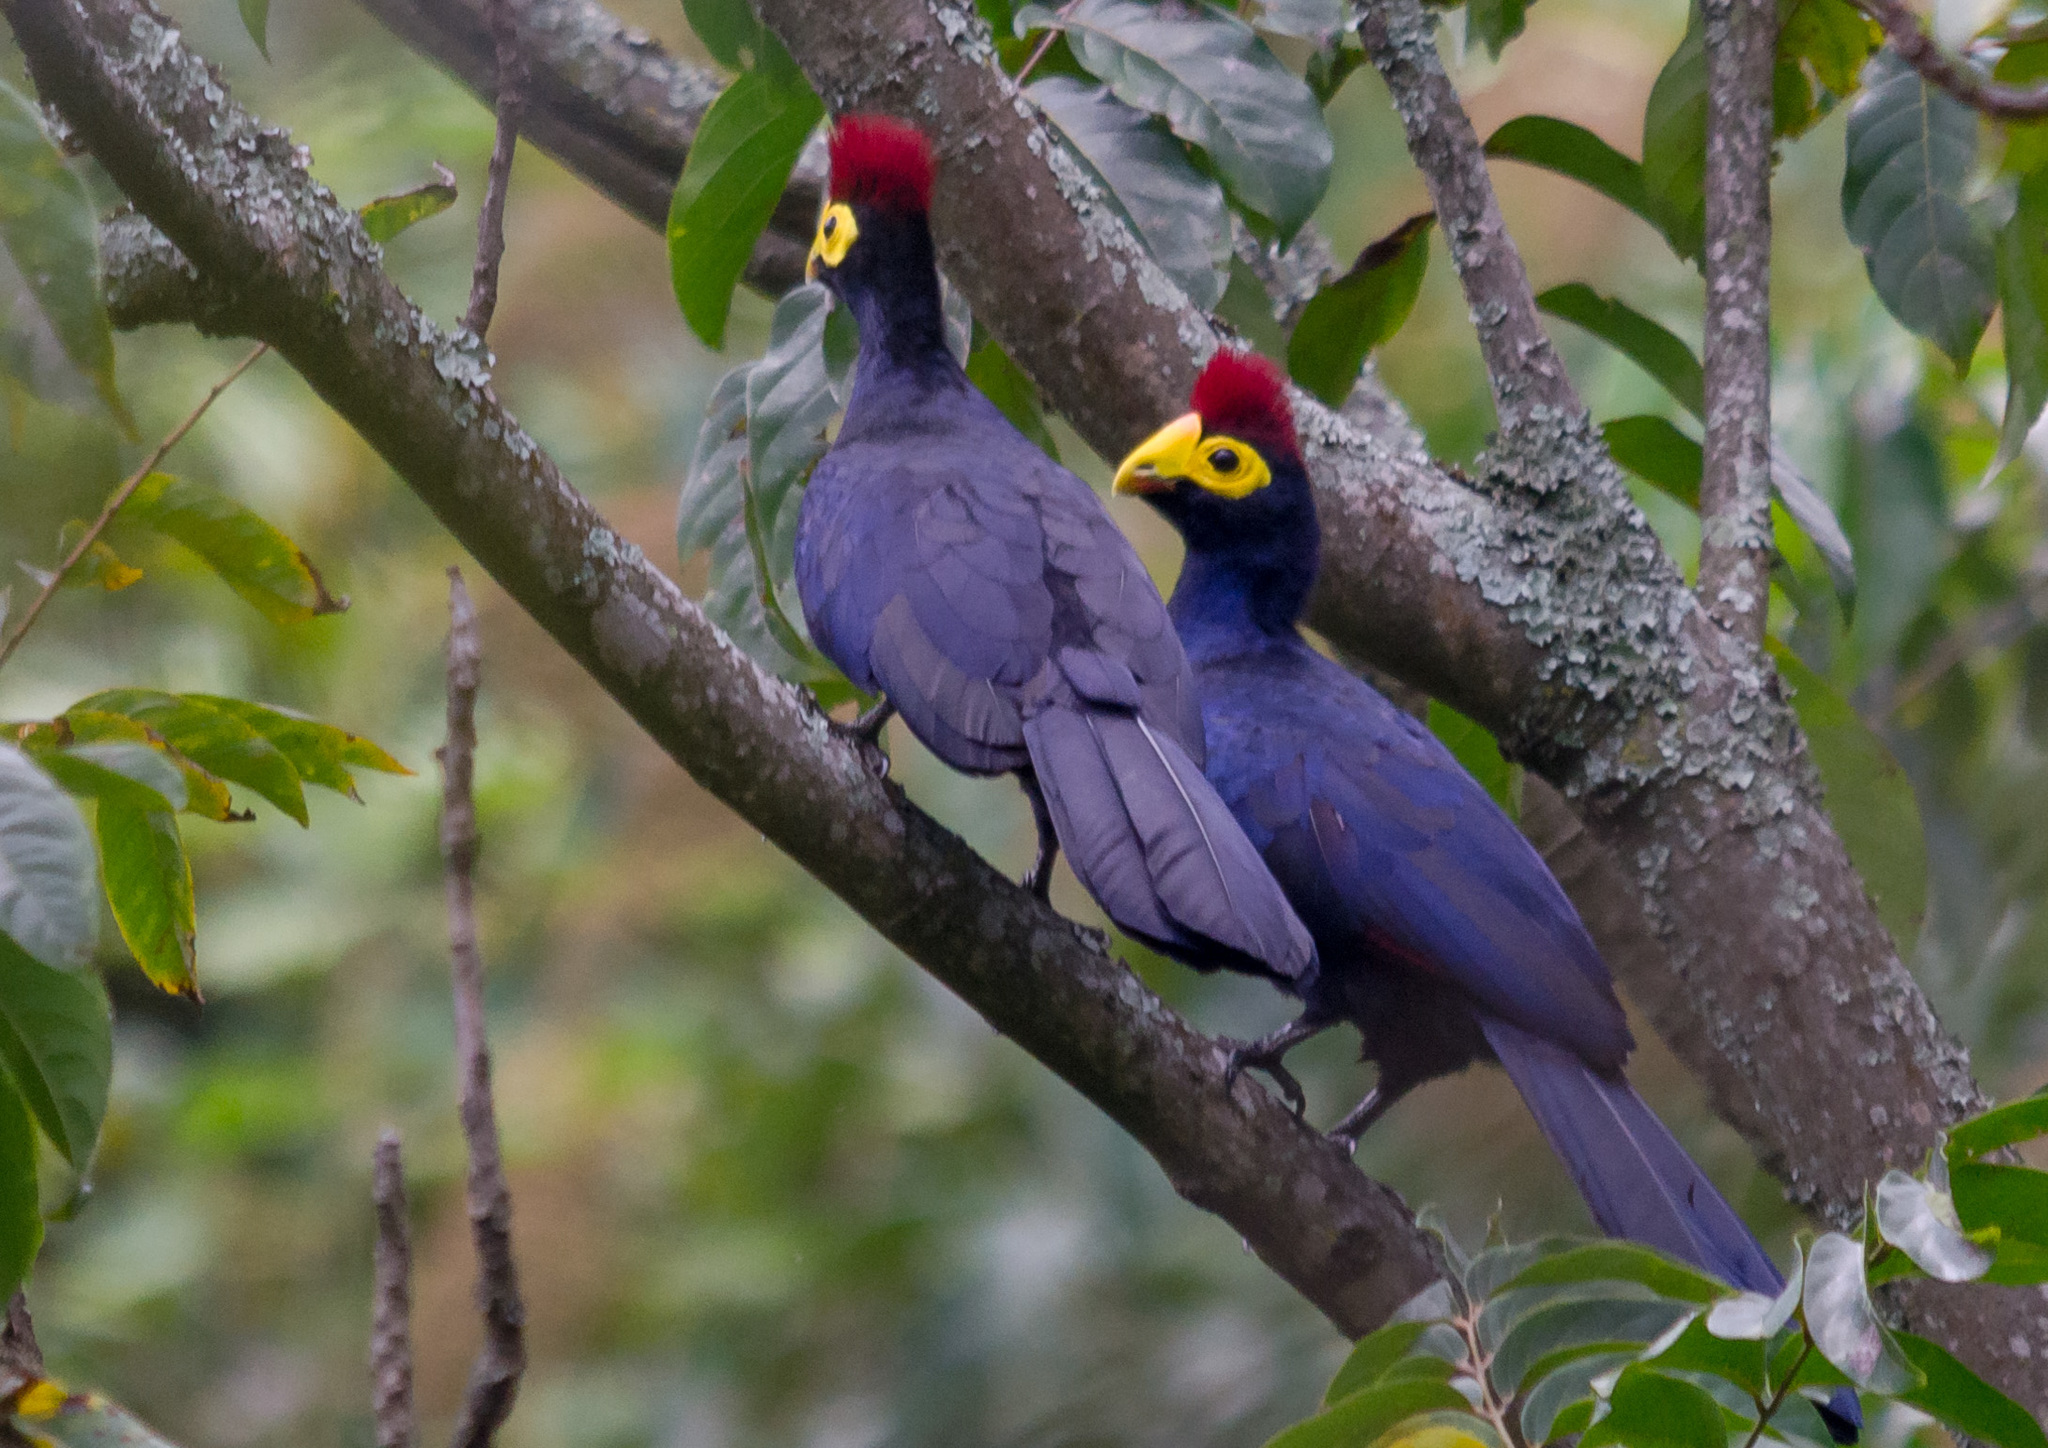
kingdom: Animalia
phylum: Chordata
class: Aves
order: Musophagiformes
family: Musophagidae
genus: Musophaga
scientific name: Musophaga rossae
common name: Ross's turaco
